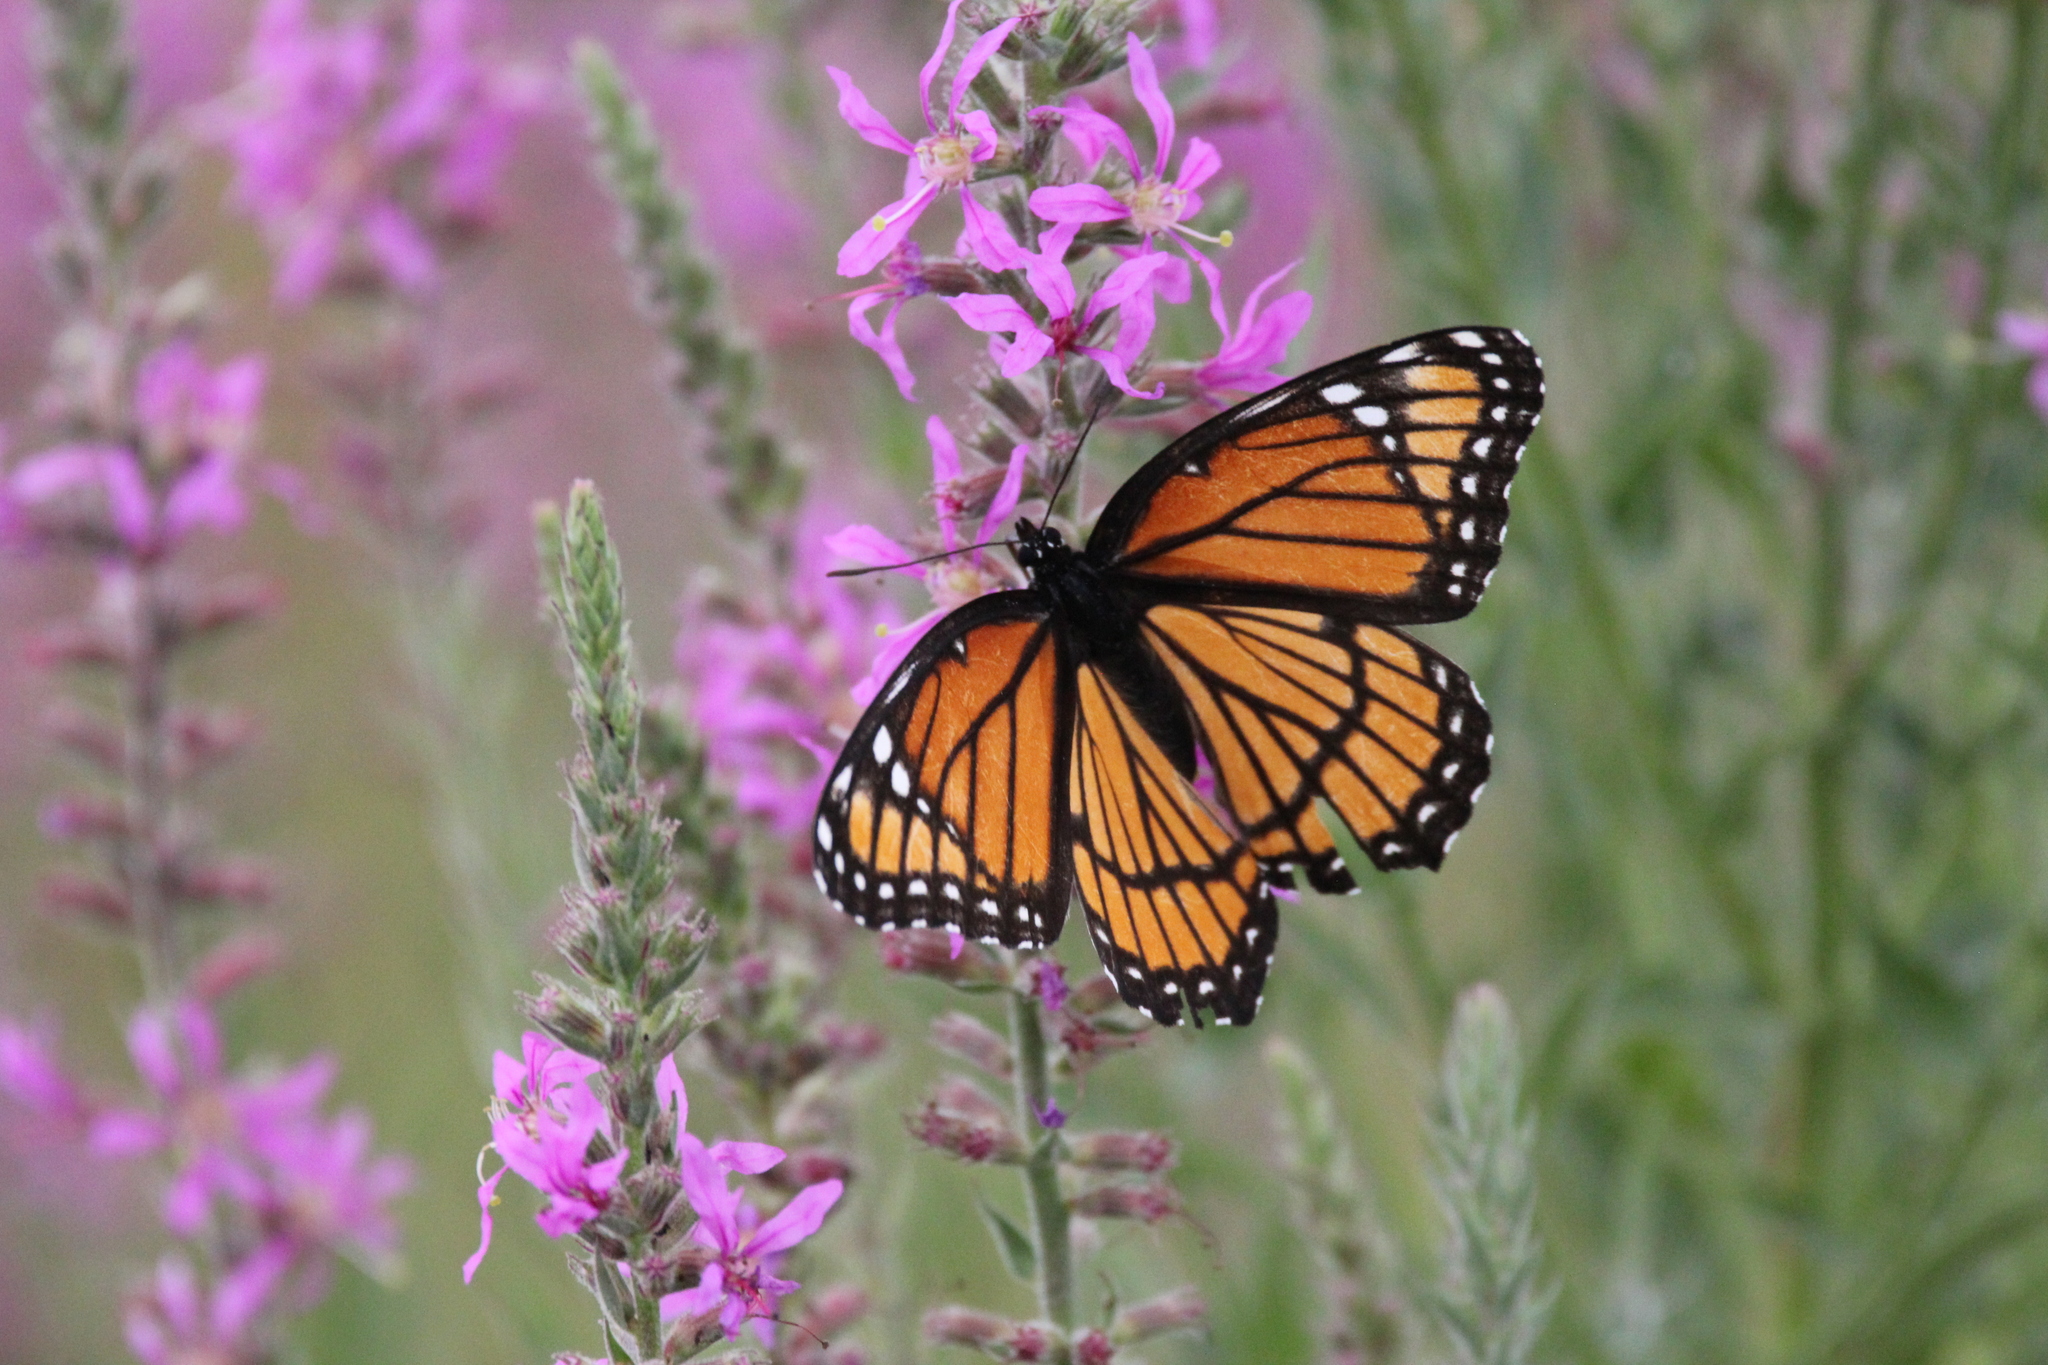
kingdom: Animalia
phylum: Arthropoda
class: Insecta
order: Lepidoptera
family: Nymphalidae
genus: Limenitis
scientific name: Limenitis archippus
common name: Viceroy
